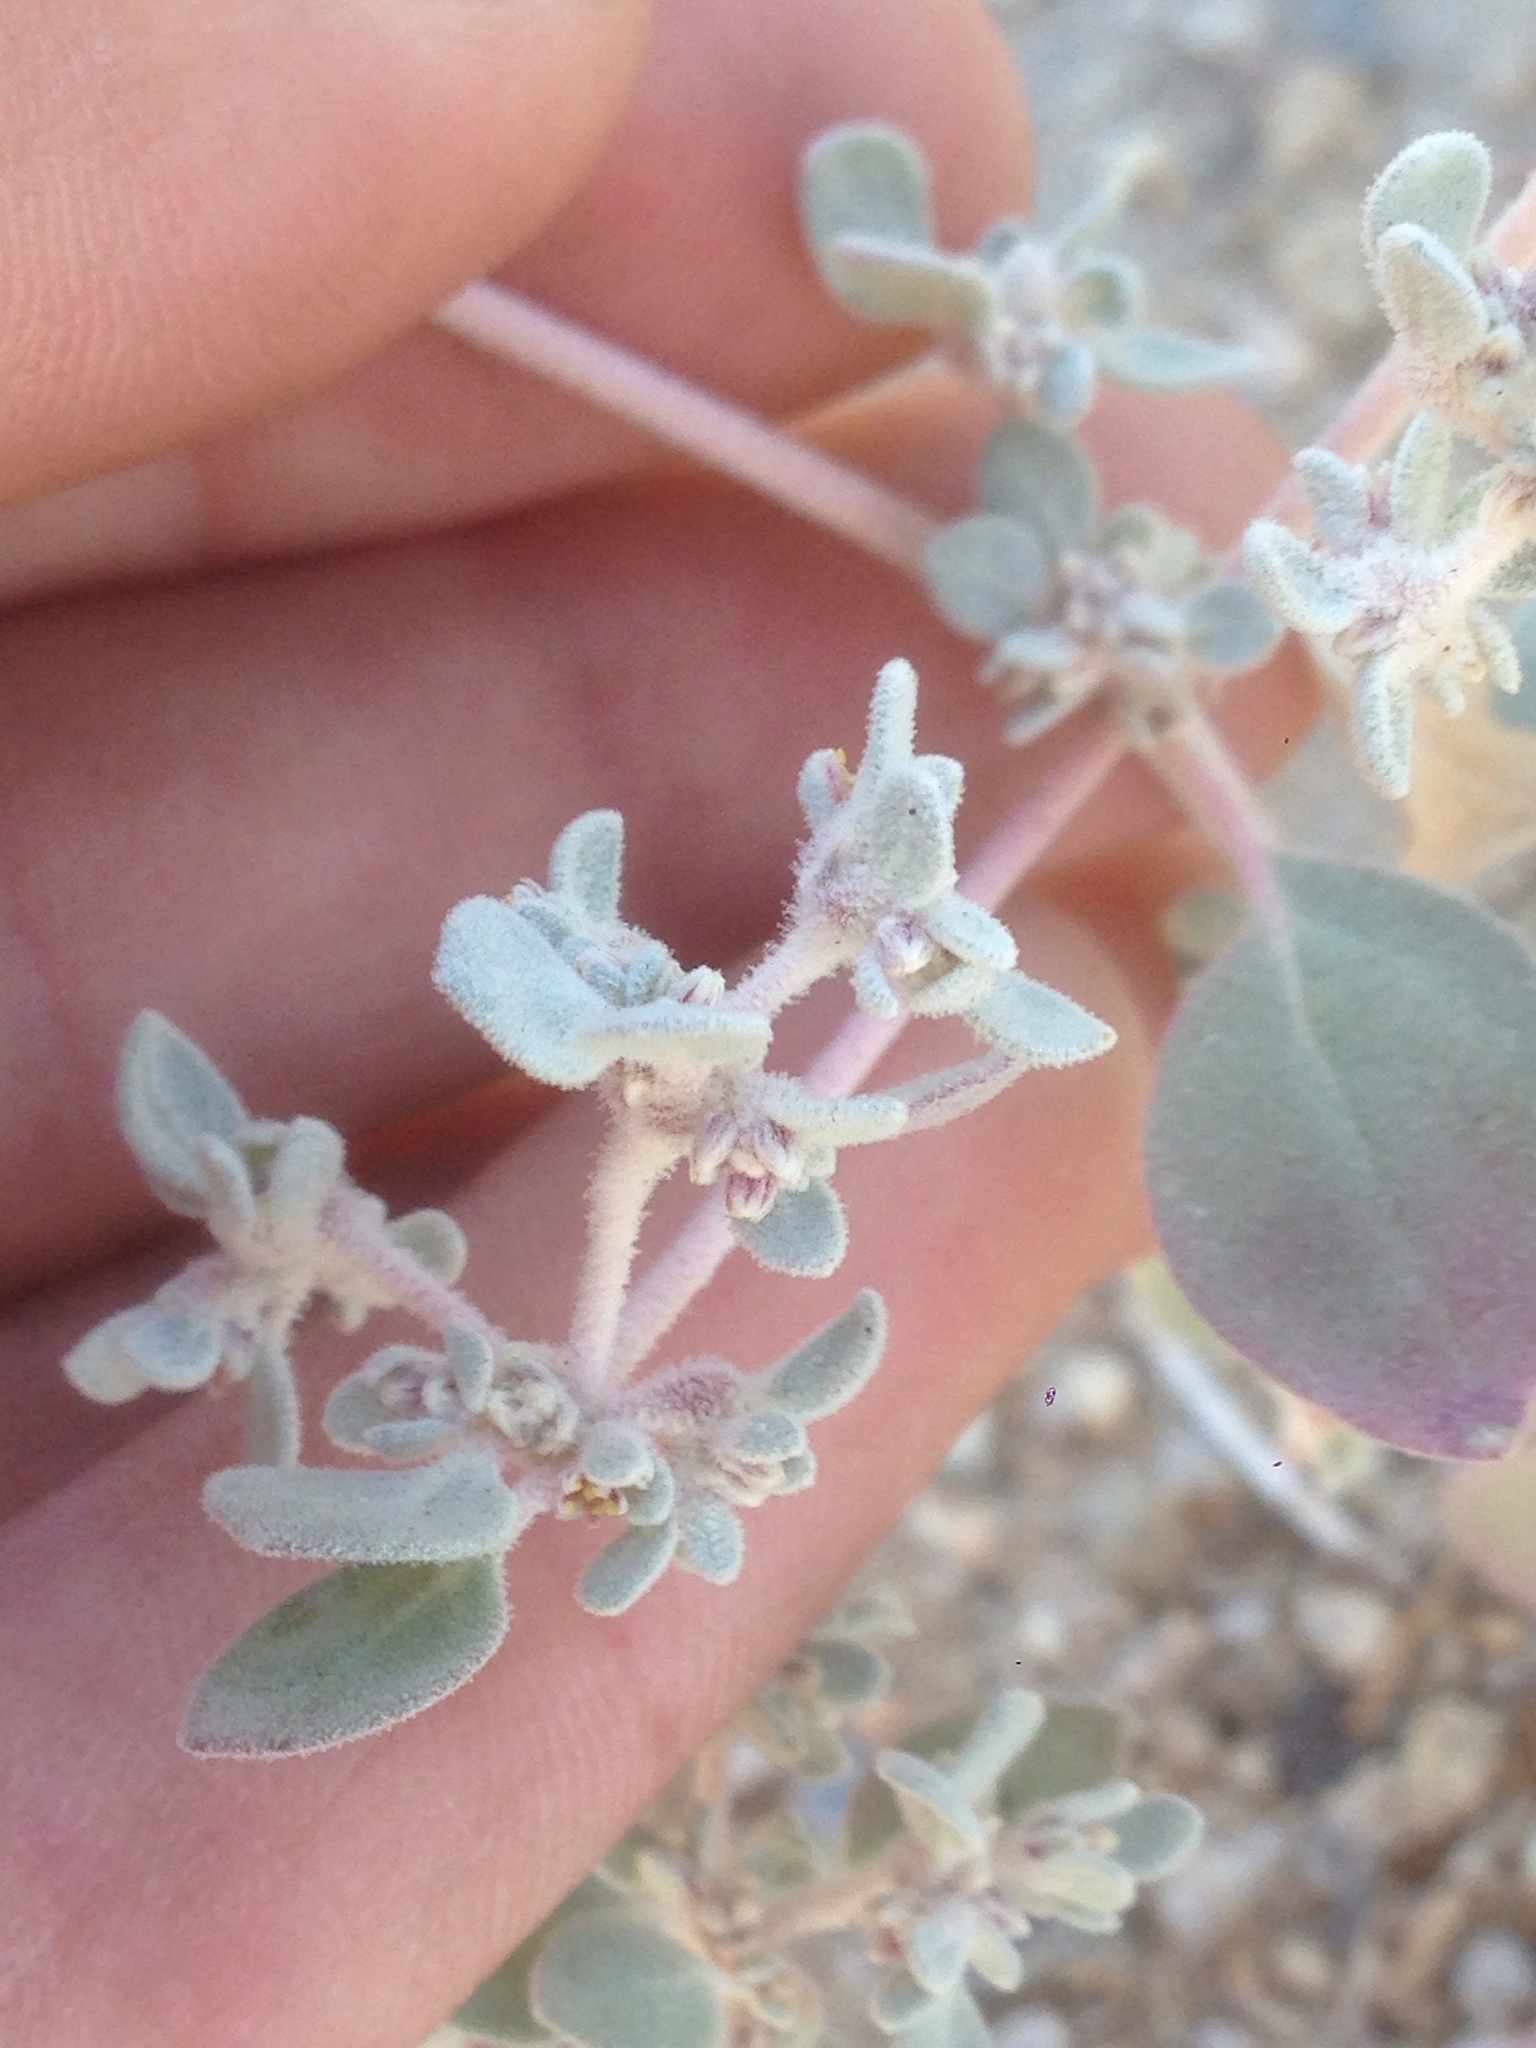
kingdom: Plantae
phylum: Tracheophyta
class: Magnoliopsida
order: Caryophyllales
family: Amaranthaceae
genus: Tidestromia
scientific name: Tidestromia suffruticosa
